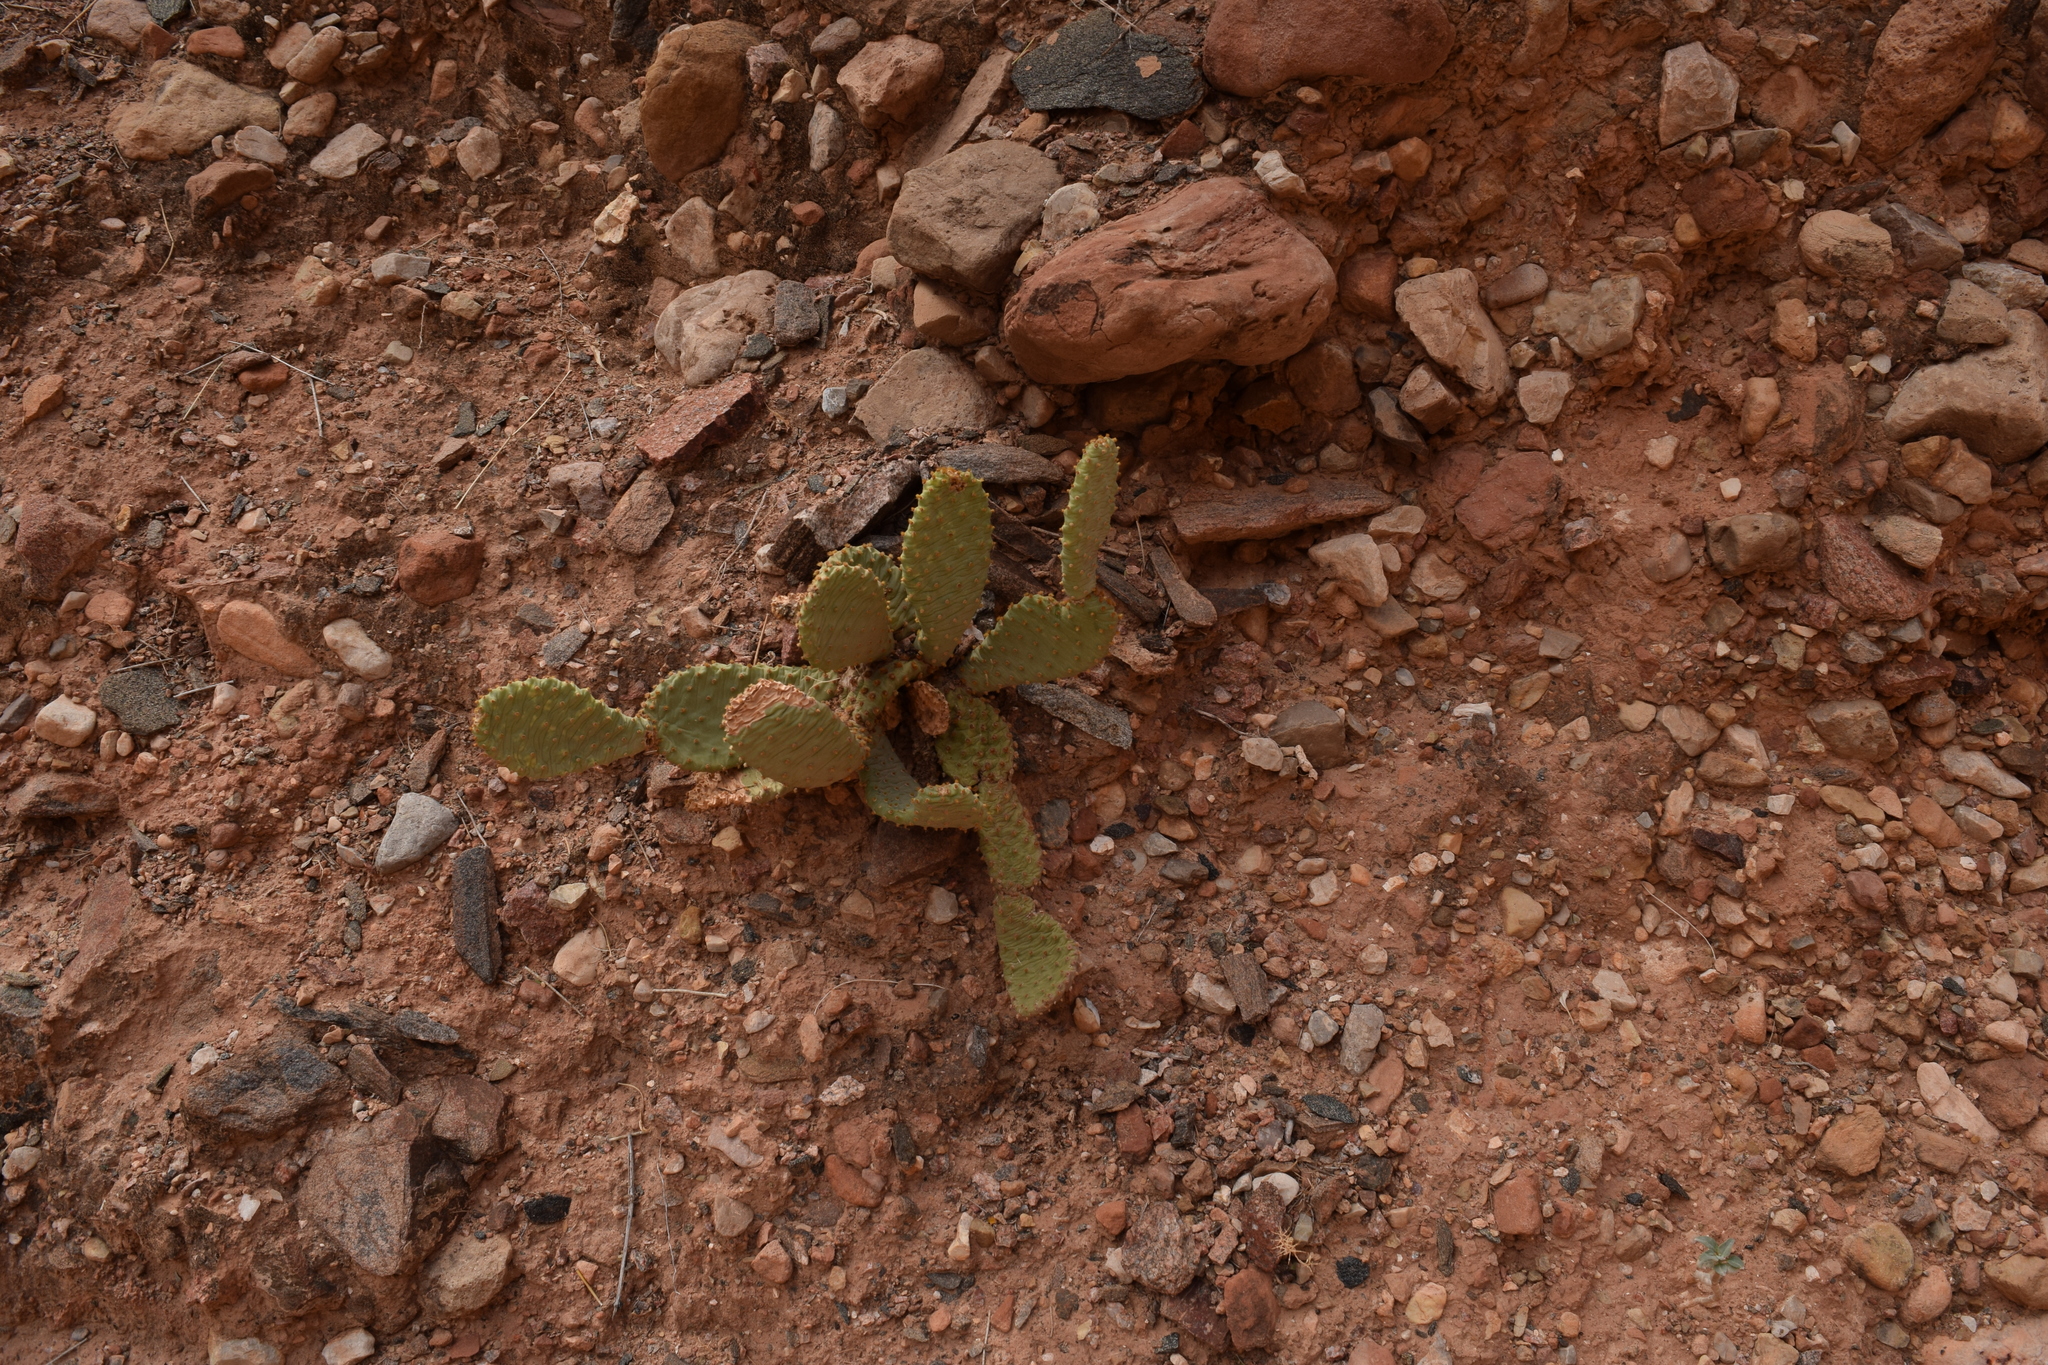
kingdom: Plantae
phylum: Tracheophyta
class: Magnoliopsida
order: Caryophyllales
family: Cactaceae
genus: Opuntia
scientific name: Opuntia basilaris
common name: Beavertail prickly-pear
